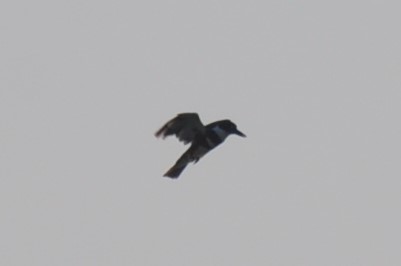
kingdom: Animalia
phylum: Chordata
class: Aves
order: Coraciiformes
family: Alcedinidae
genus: Megaceryle
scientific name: Megaceryle alcyon
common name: Belted kingfisher
